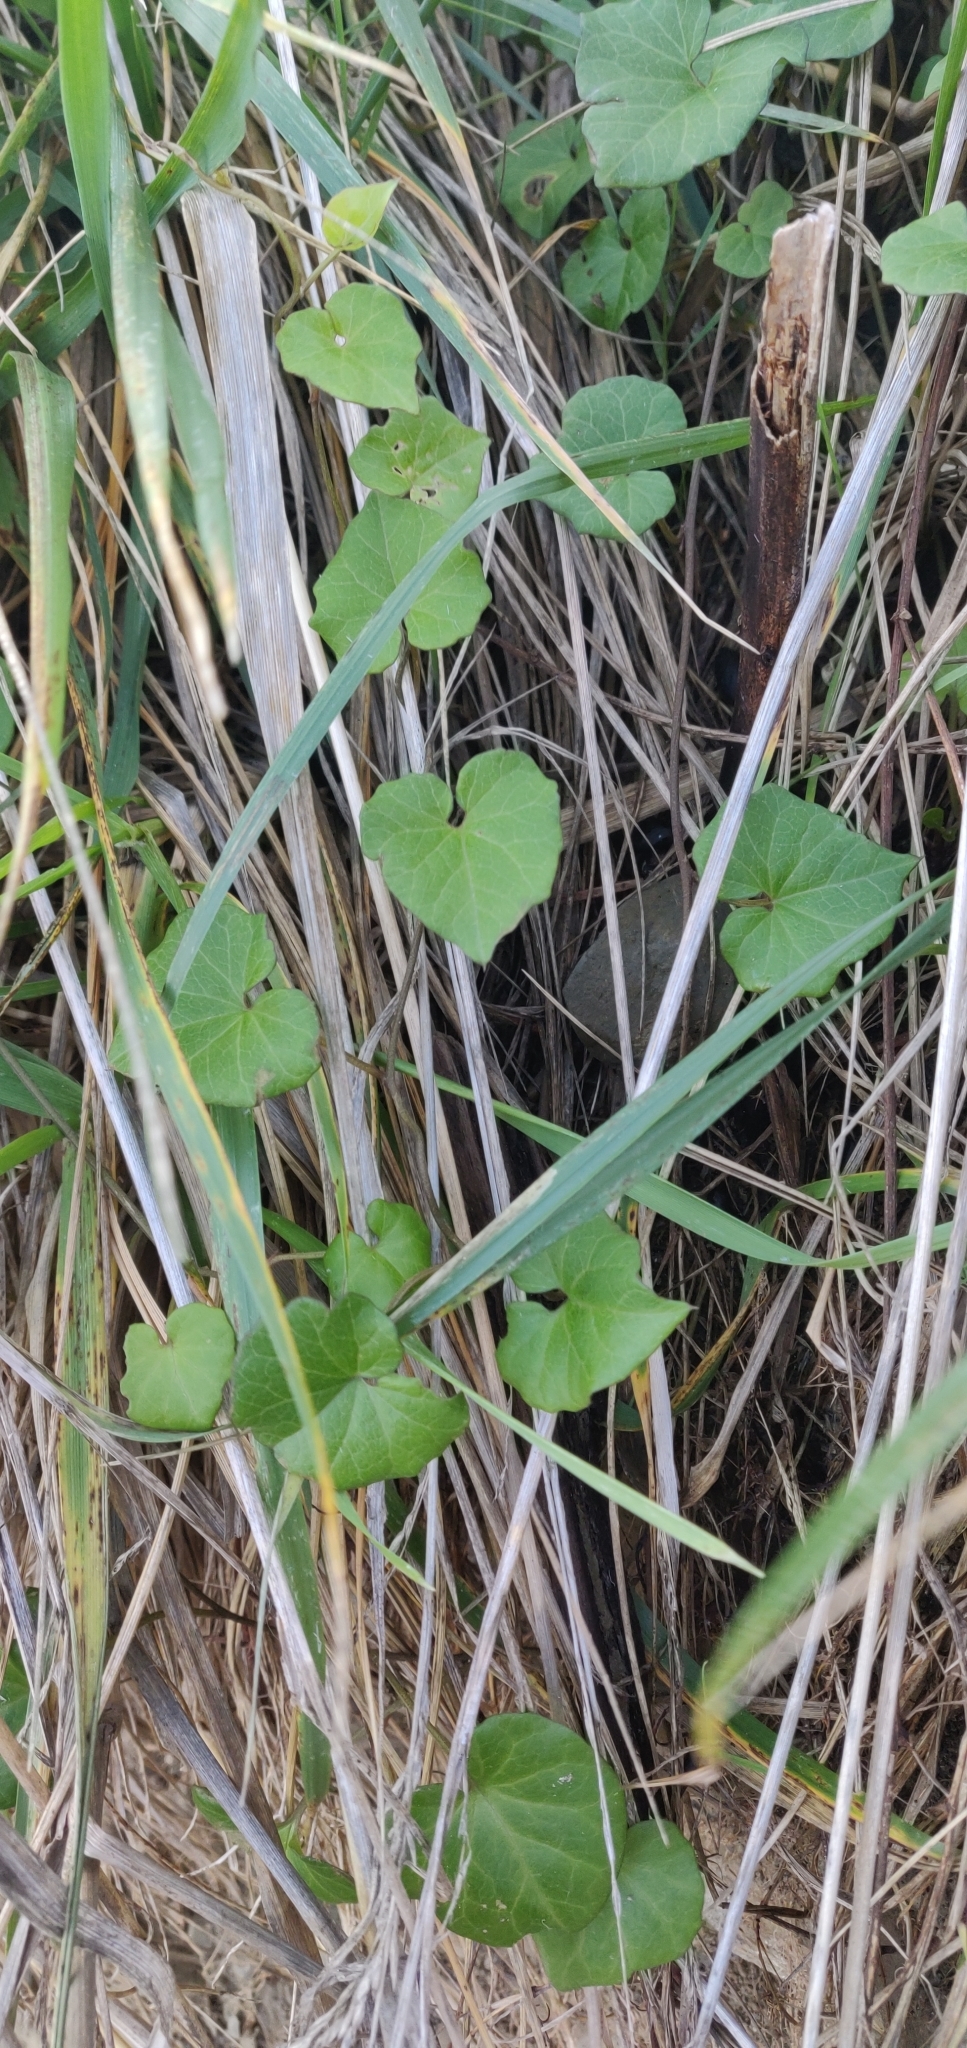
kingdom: Plantae
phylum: Tracheophyta
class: Magnoliopsida
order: Solanales
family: Convolvulaceae
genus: Calystegia
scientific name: Calystegia tuguriorum
